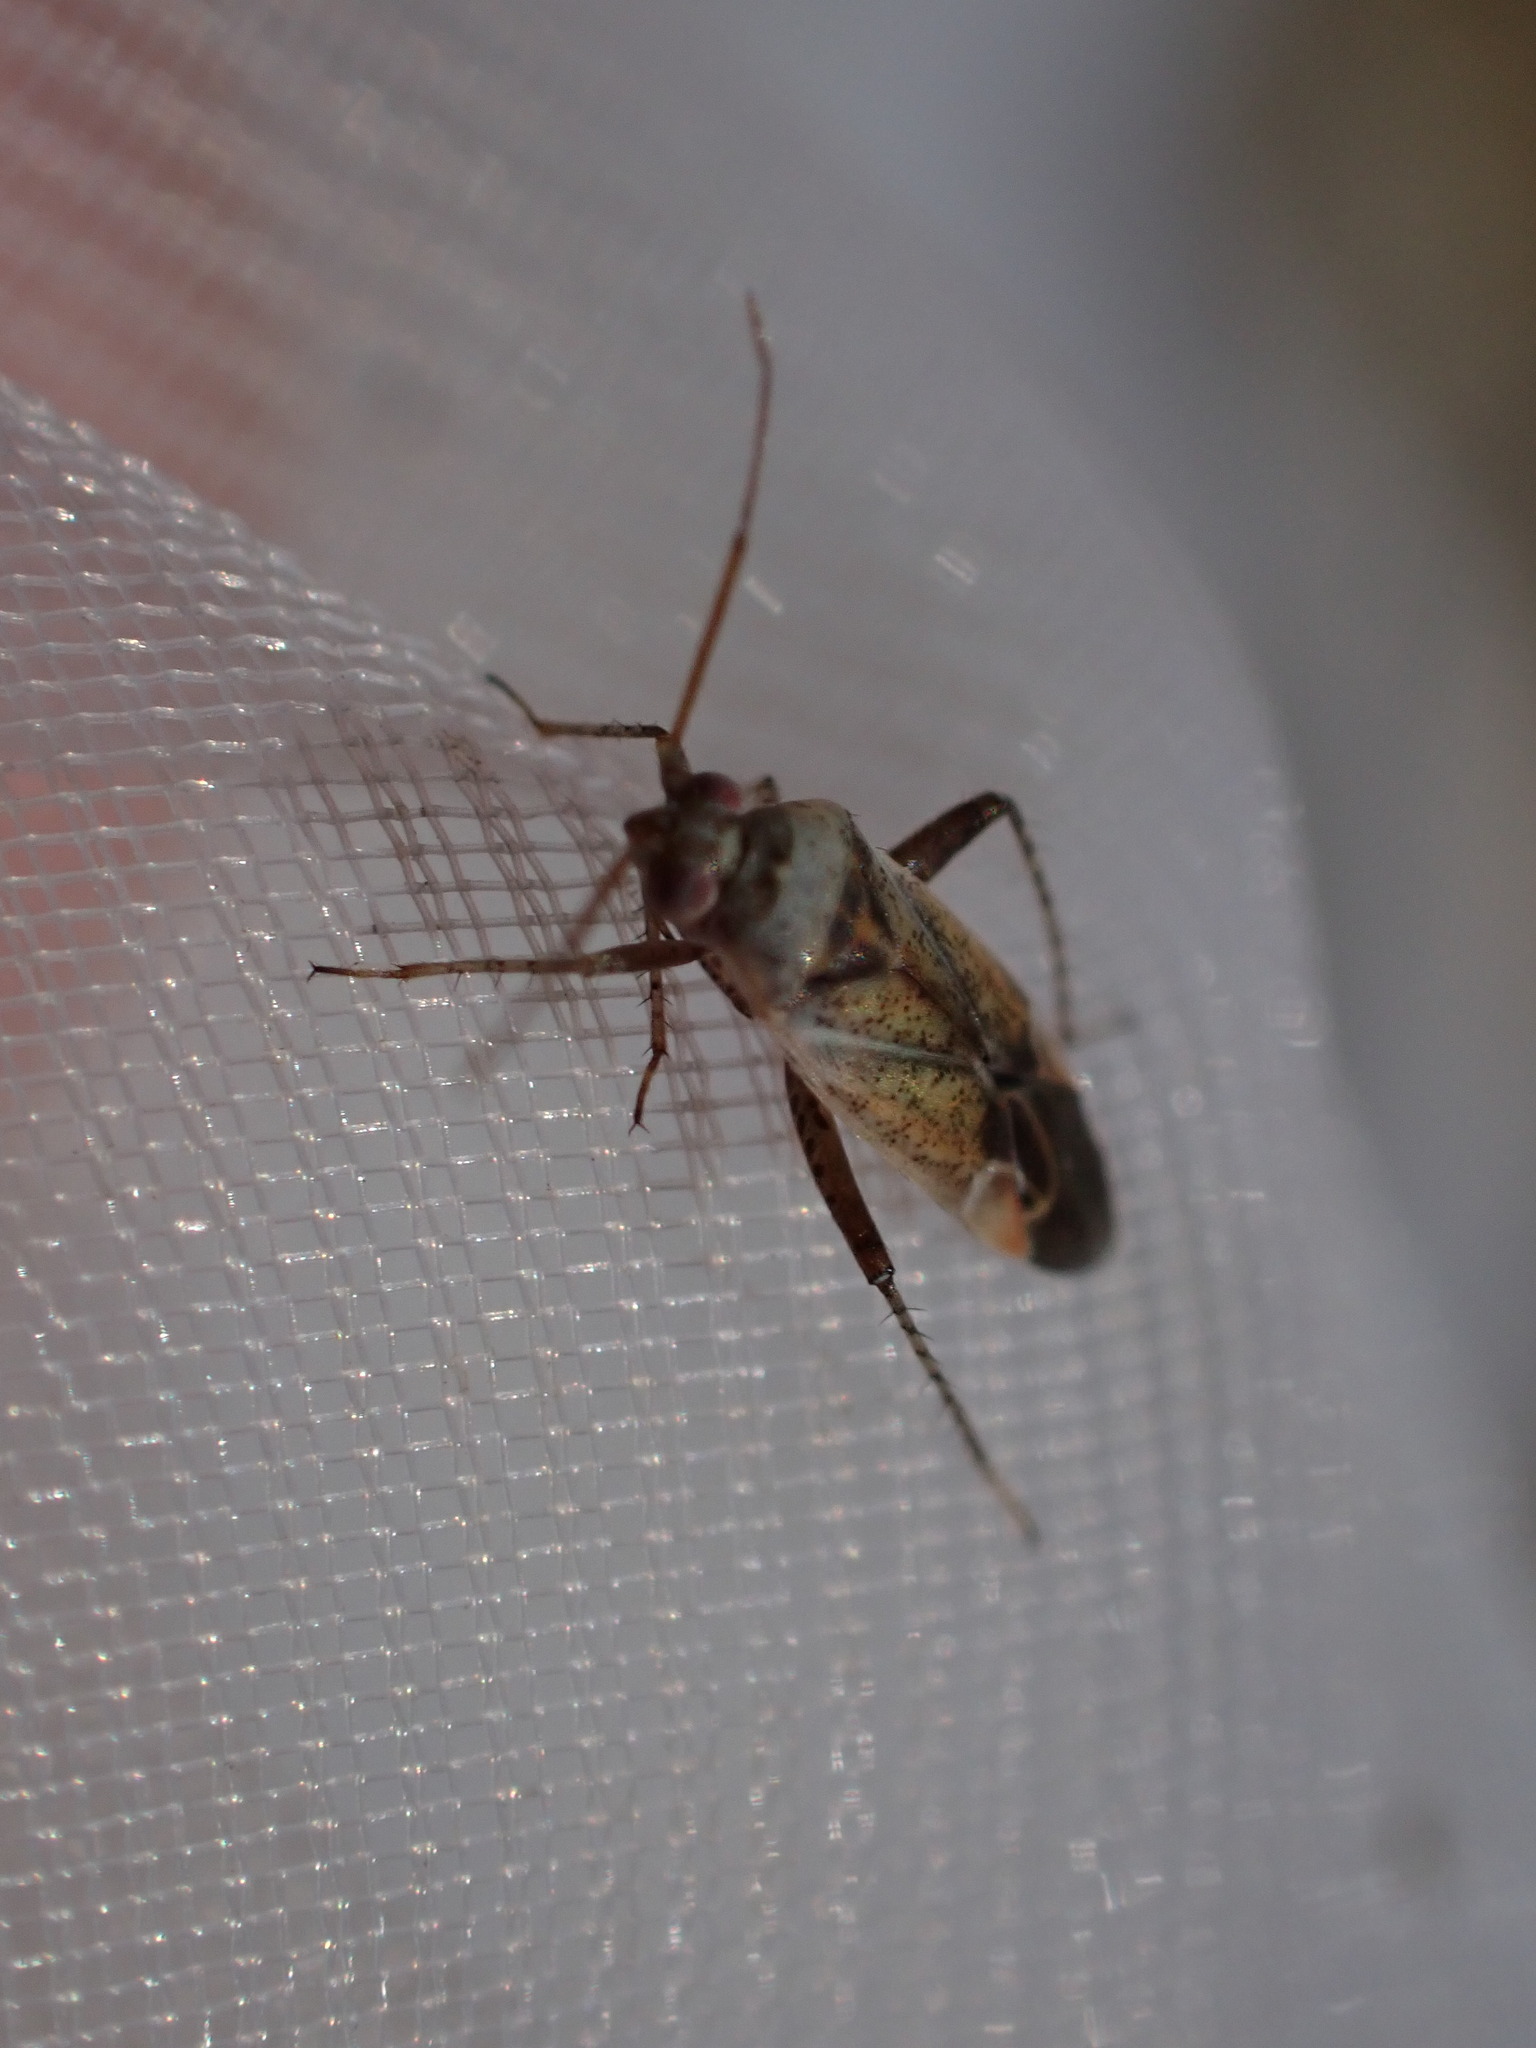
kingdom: Animalia
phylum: Arthropoda
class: Insecta
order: Hemiptera
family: Miridae
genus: Compsidolon
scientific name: Compsidolon crotchi
